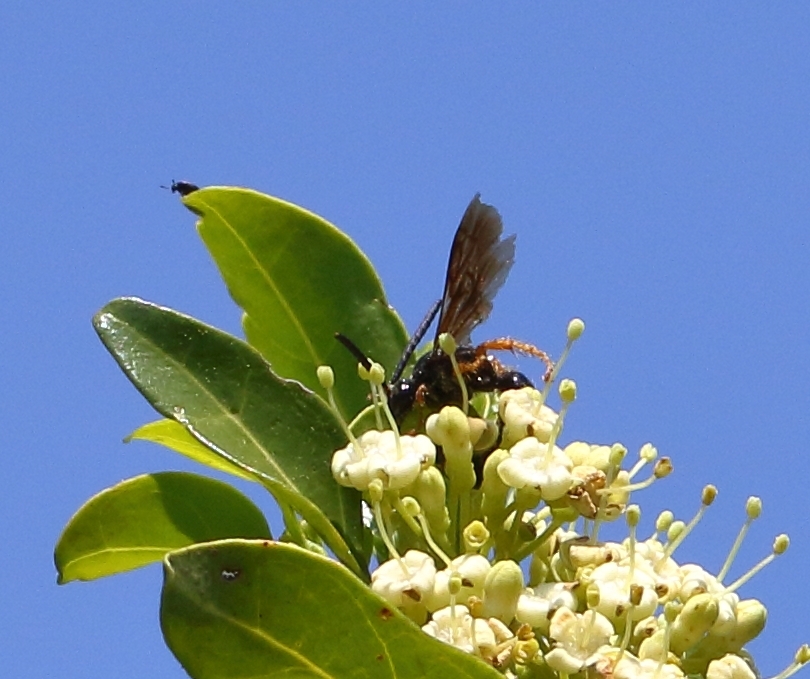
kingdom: Plantae
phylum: Tracheophyta
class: Magnoliopsida
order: Gentianales
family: Rubiaceae
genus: Psydrax
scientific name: Psydrax locuples
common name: Sand quar
